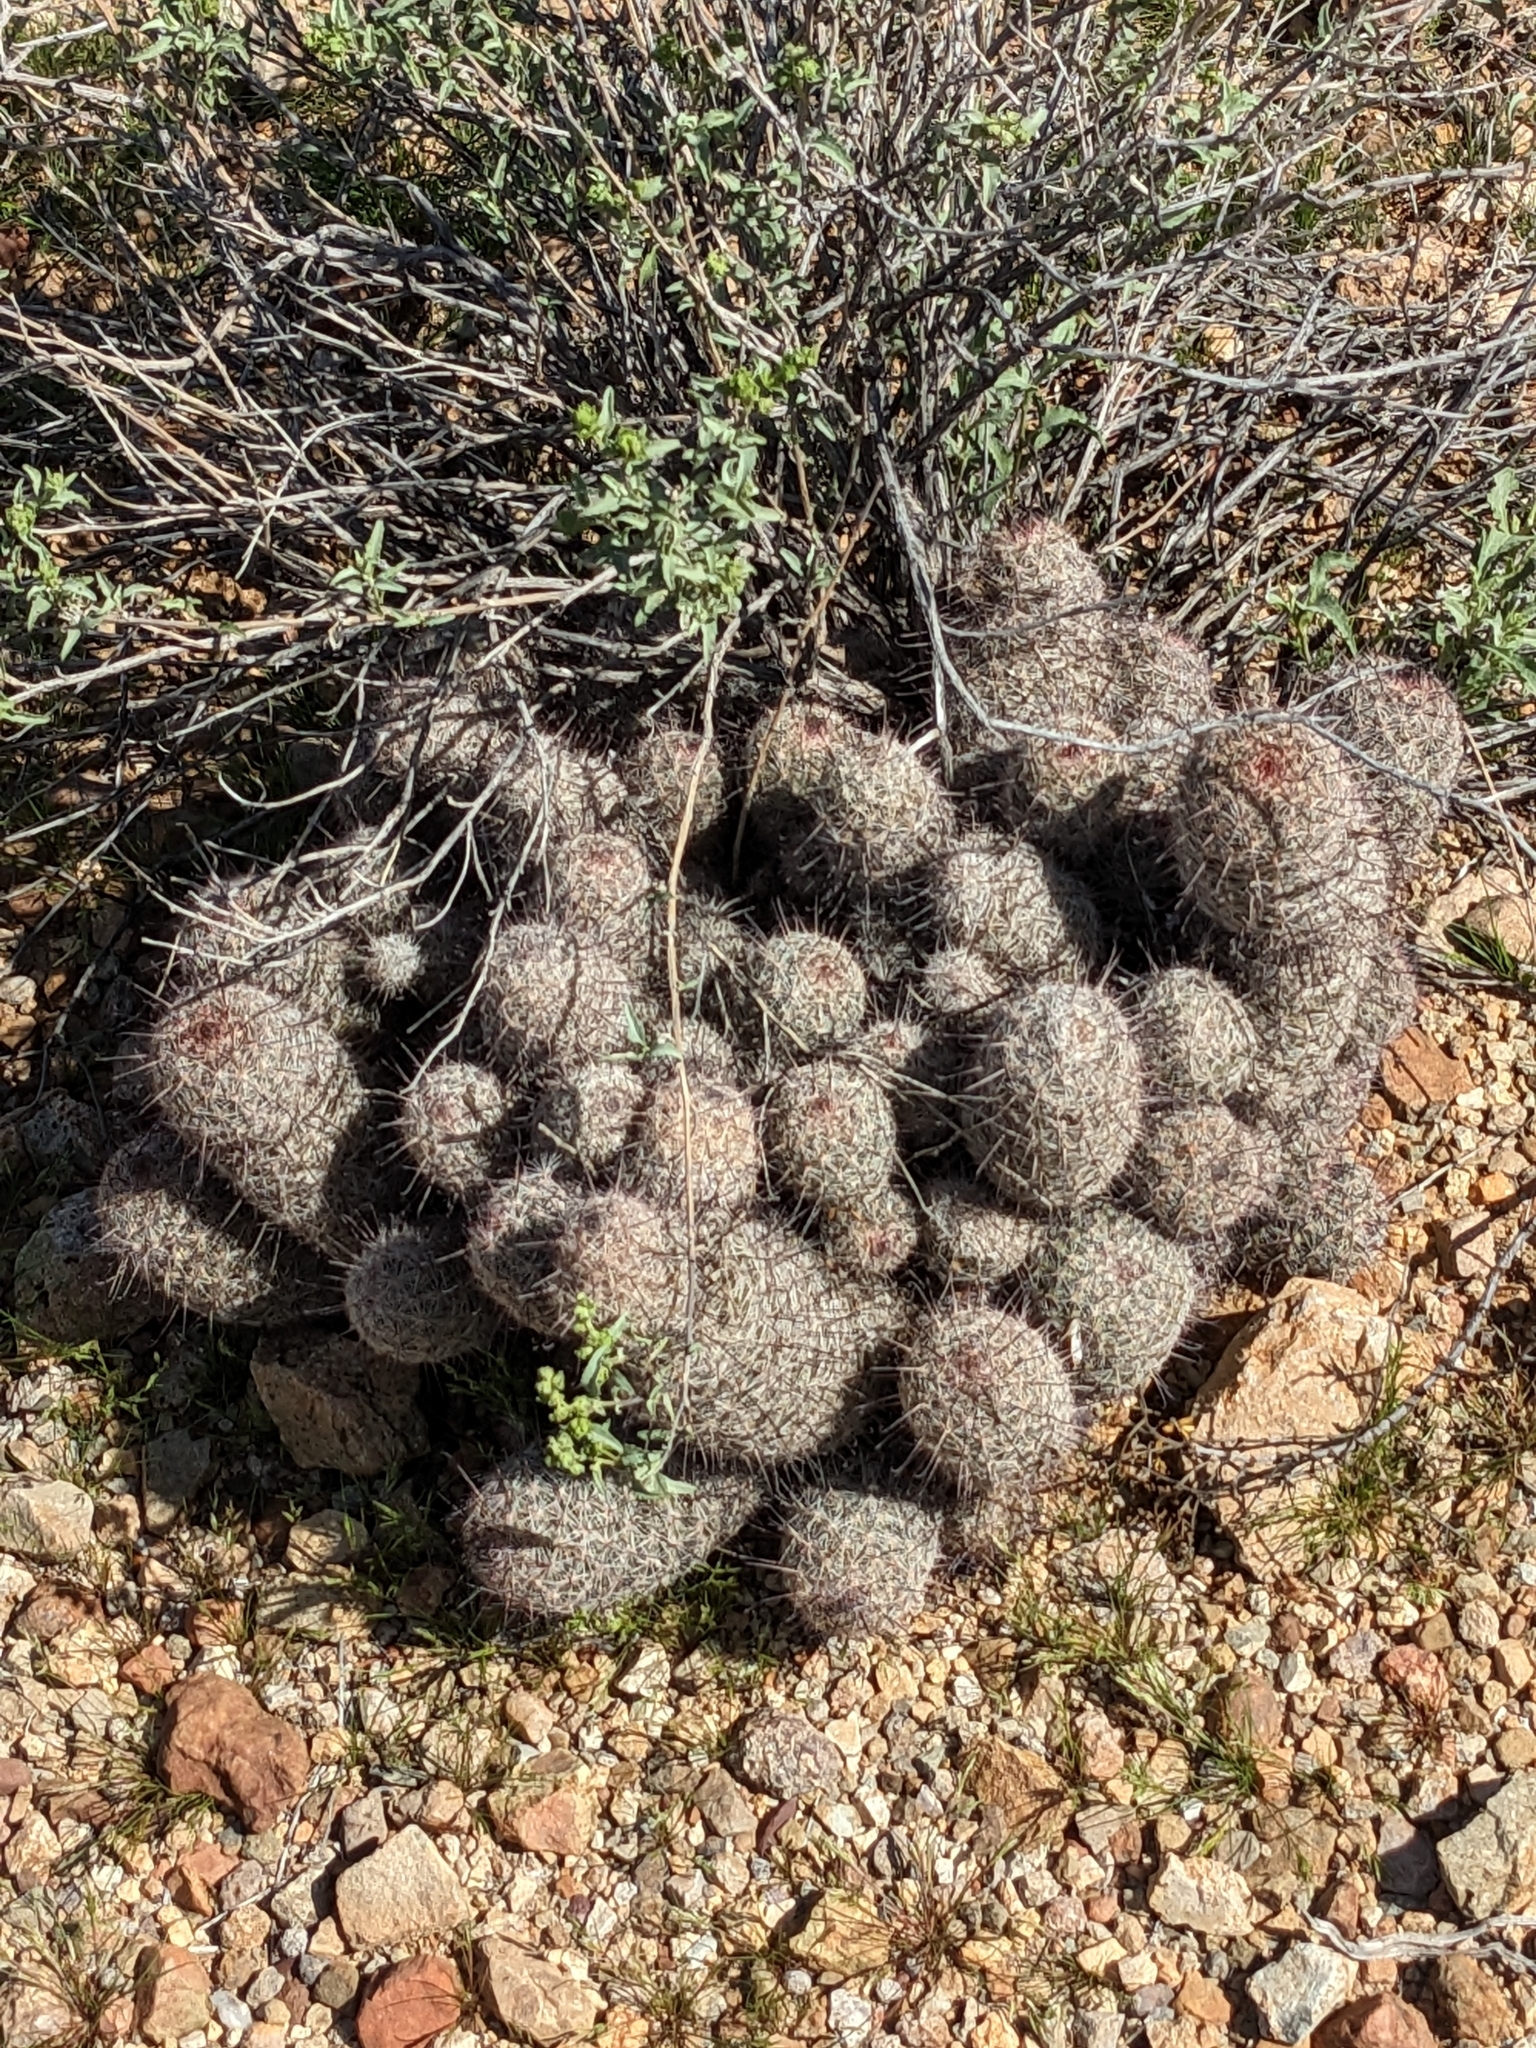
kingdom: Plantae
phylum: Tracheophyta
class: Magnoliopsida
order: Caryophyllales
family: Cactaceae
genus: Cochemiea
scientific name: Cochemiea grahamii
